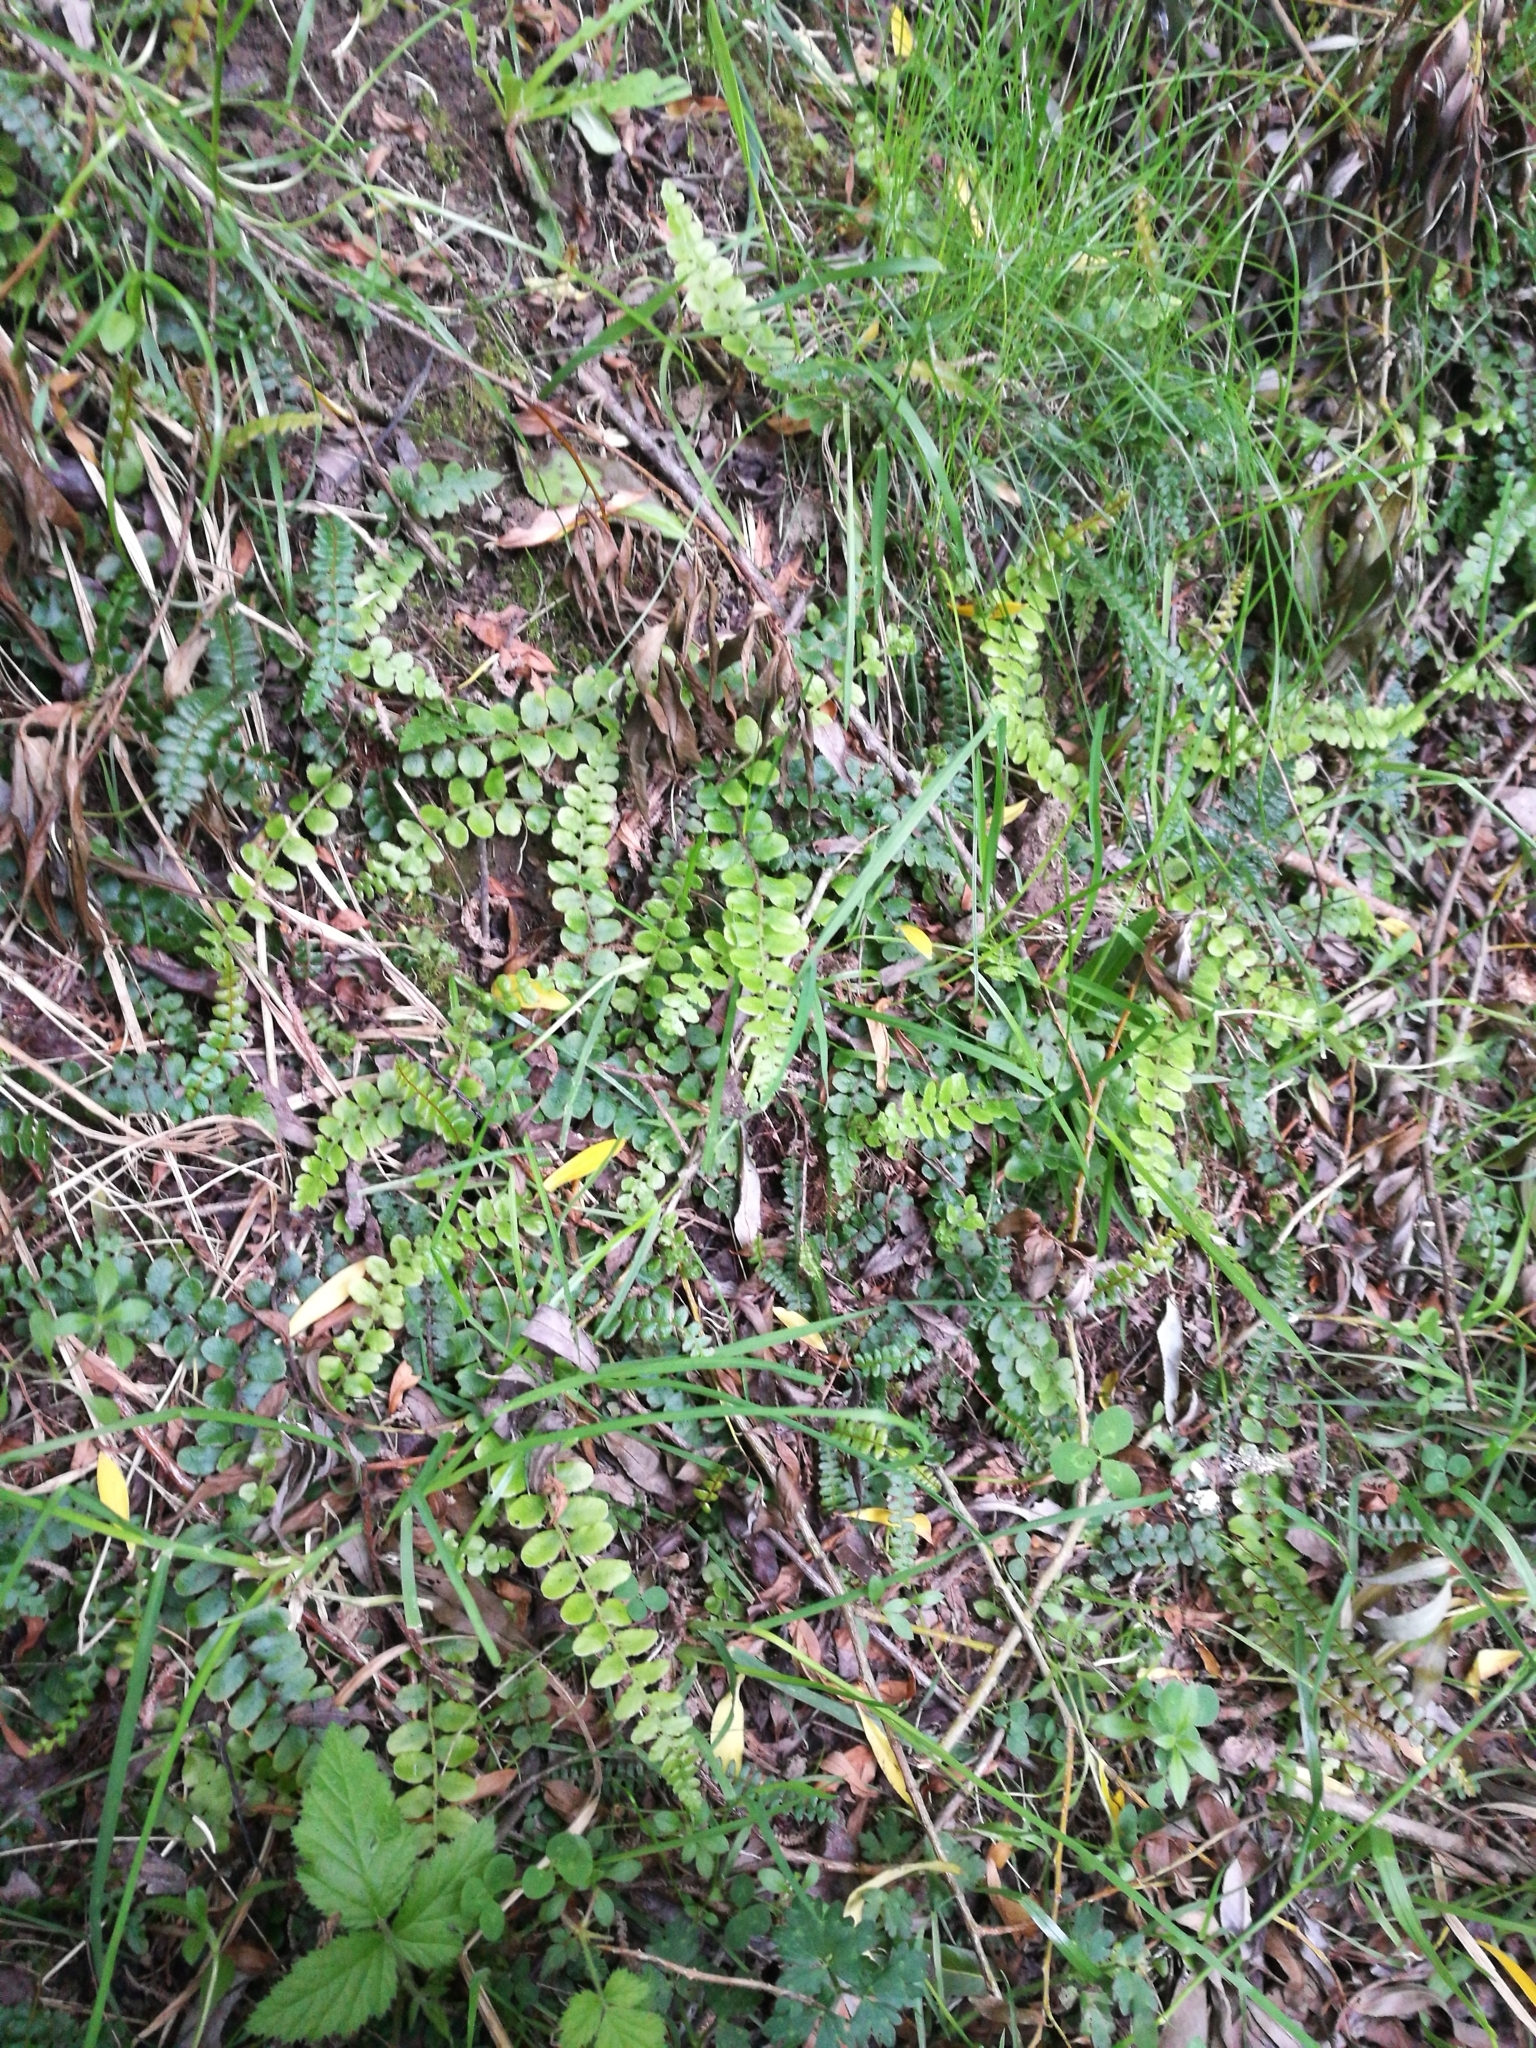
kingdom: Plantae
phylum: Tracheophyta
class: Polypodiopsida
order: Polypodiales
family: Blechnaceae
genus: Cranfillia
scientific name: Cranfillia fluviatilis
